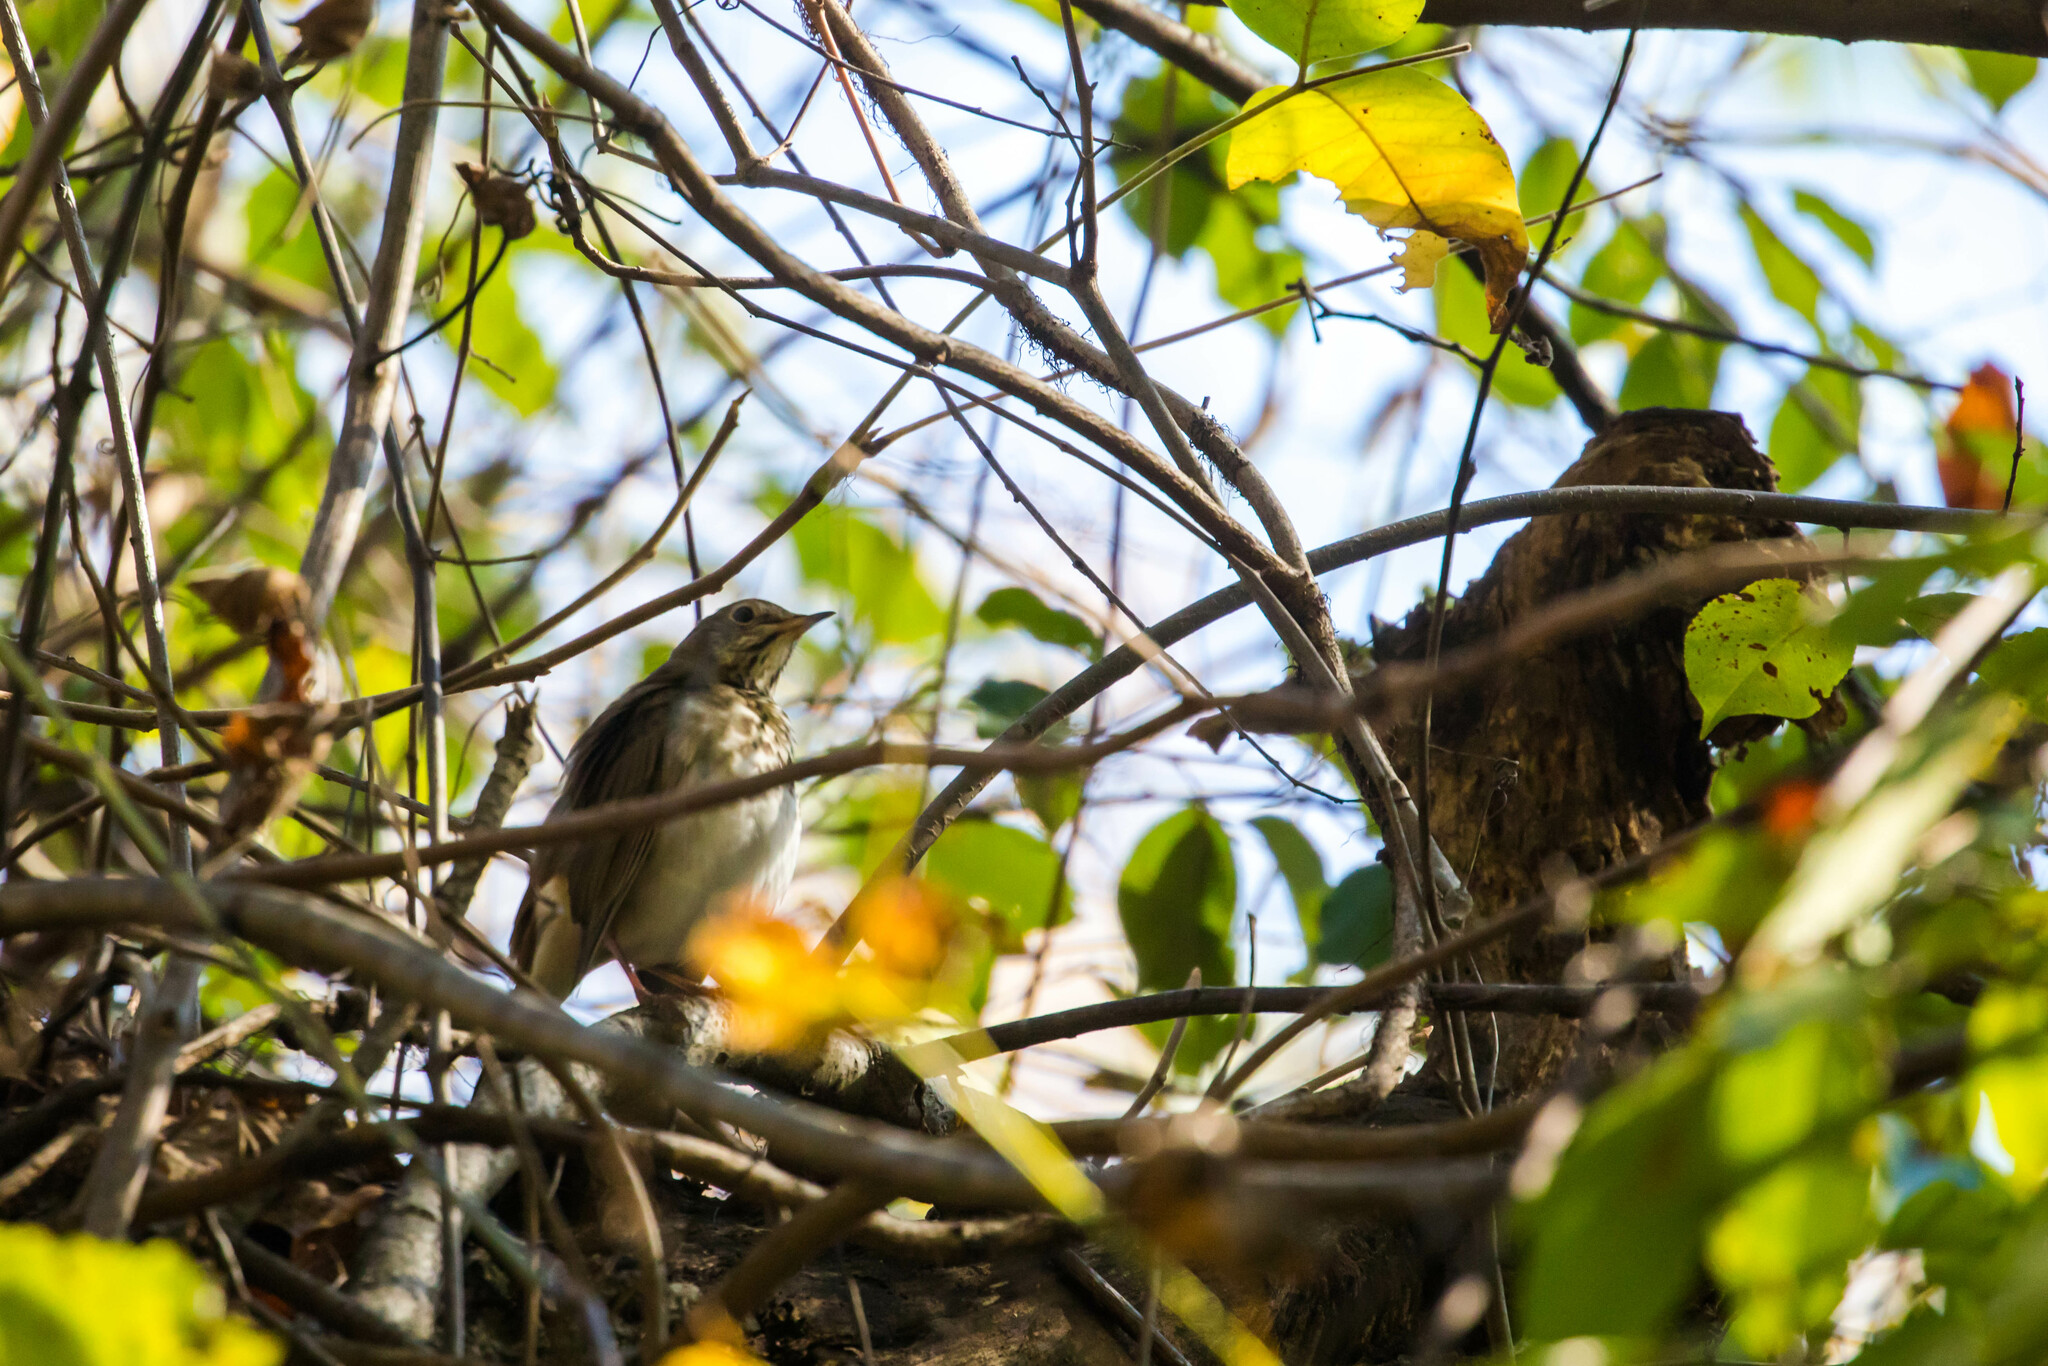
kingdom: Animalia
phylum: Chordata
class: Aves
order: Passeriformes
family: Turdidae
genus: Catharus
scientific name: Catharus guttatus
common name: Hermit thrush
